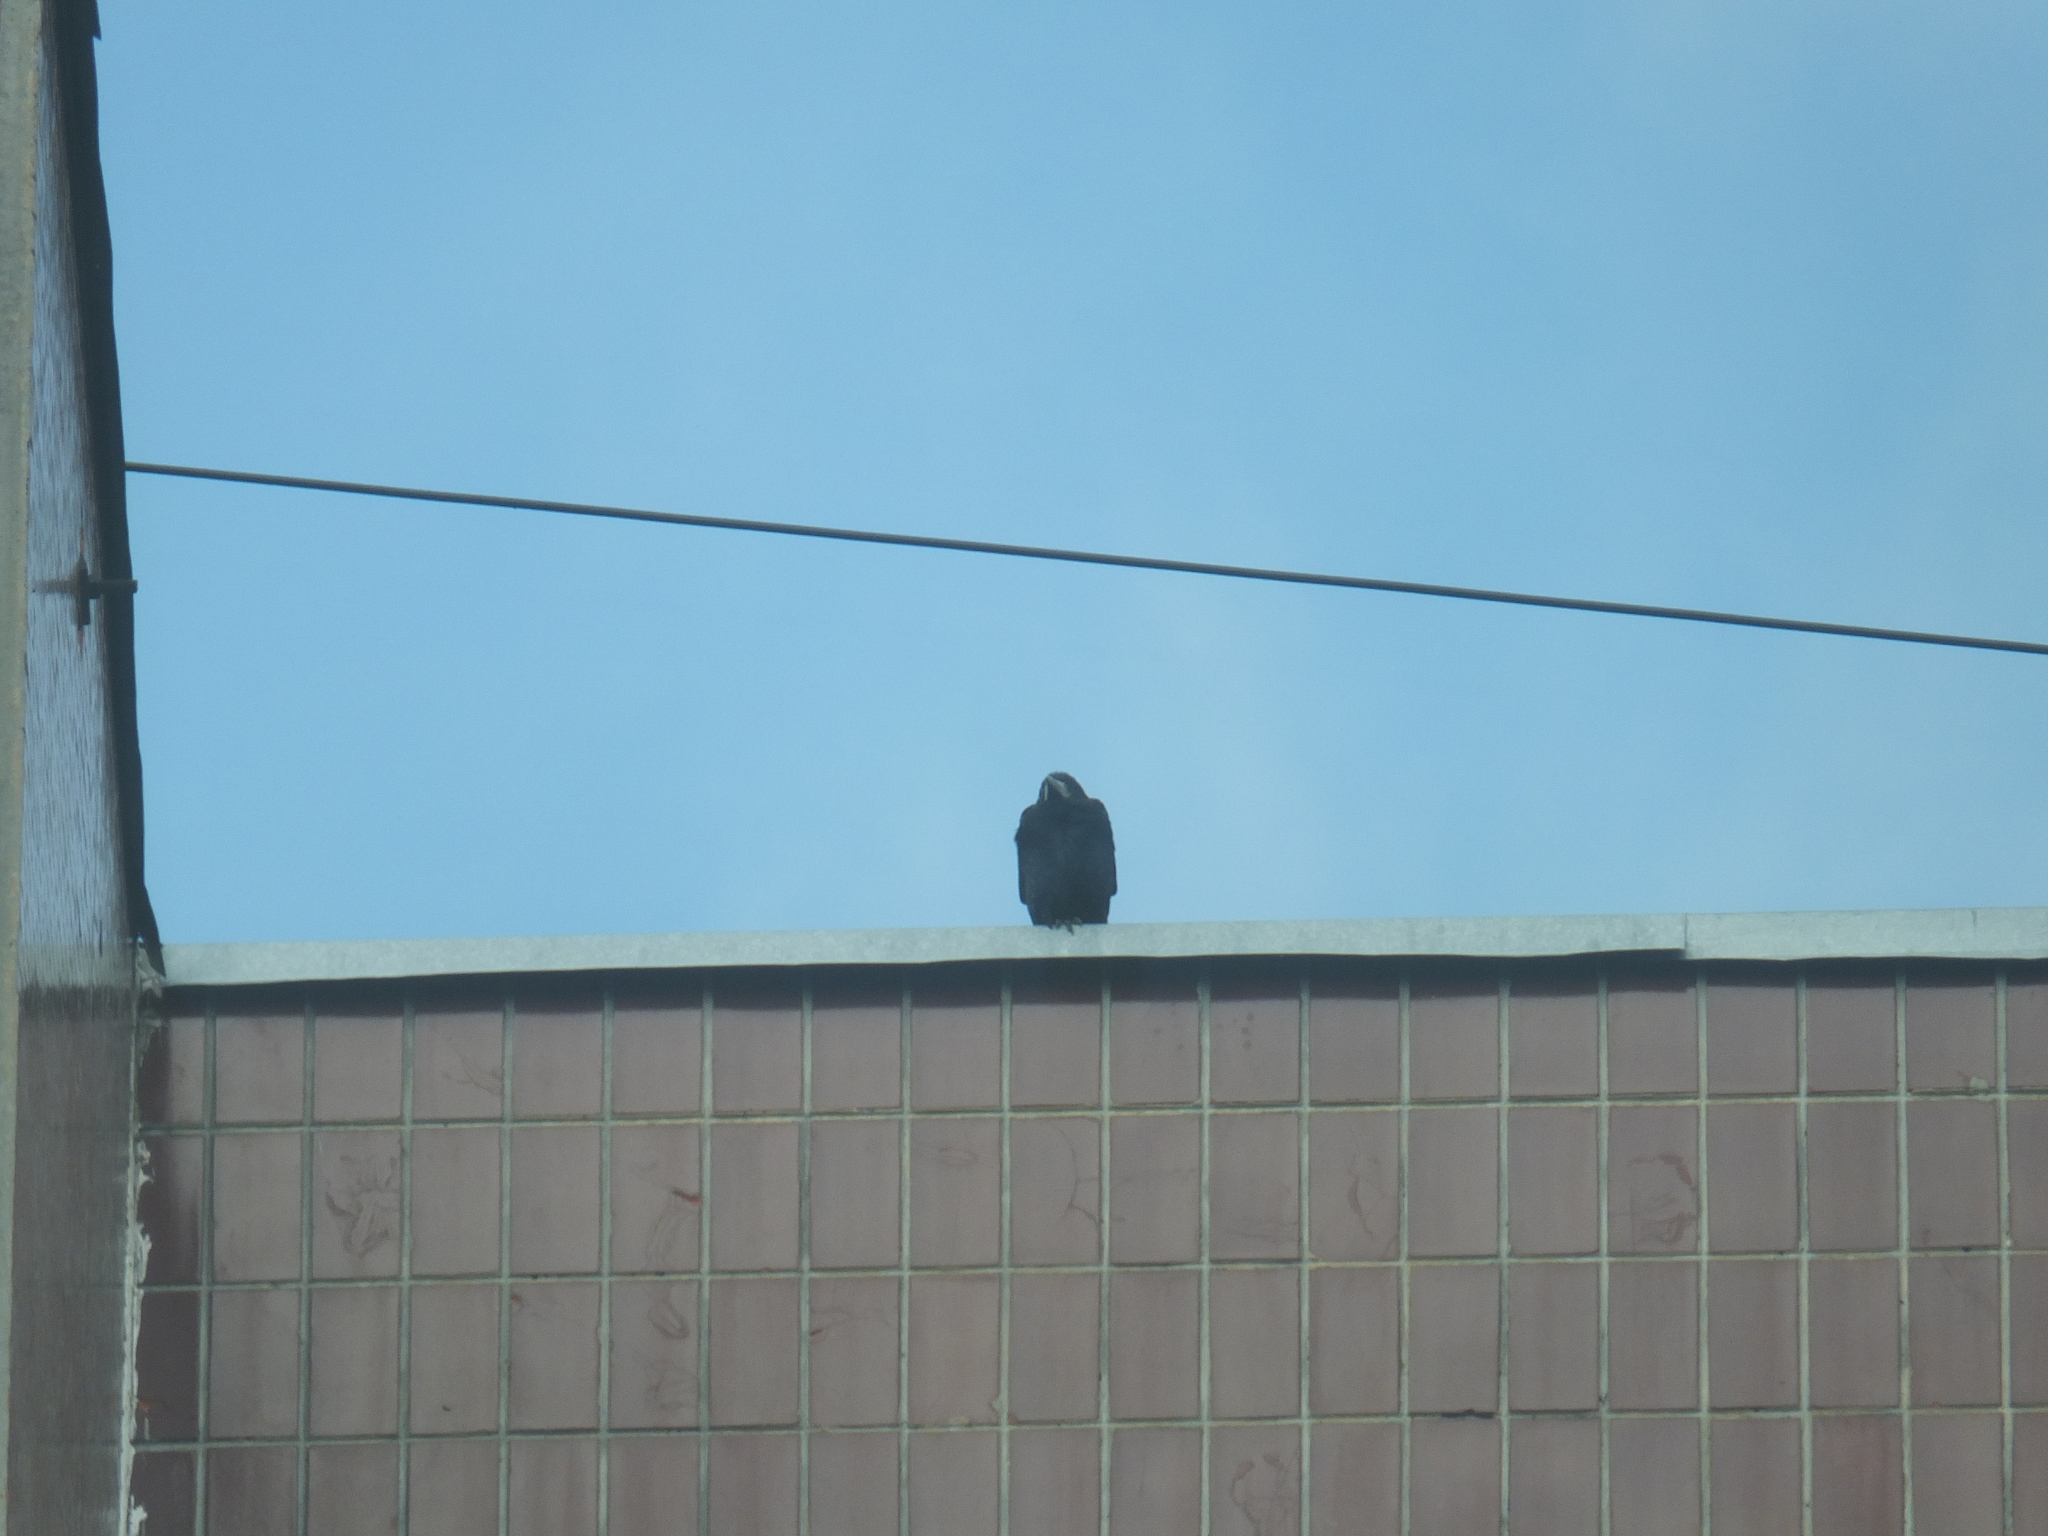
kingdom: Animalia
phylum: Chordata
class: Aves
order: Passeriformes
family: Corvidae
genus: Corvus
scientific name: Corvus frugilegus
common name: Rook
